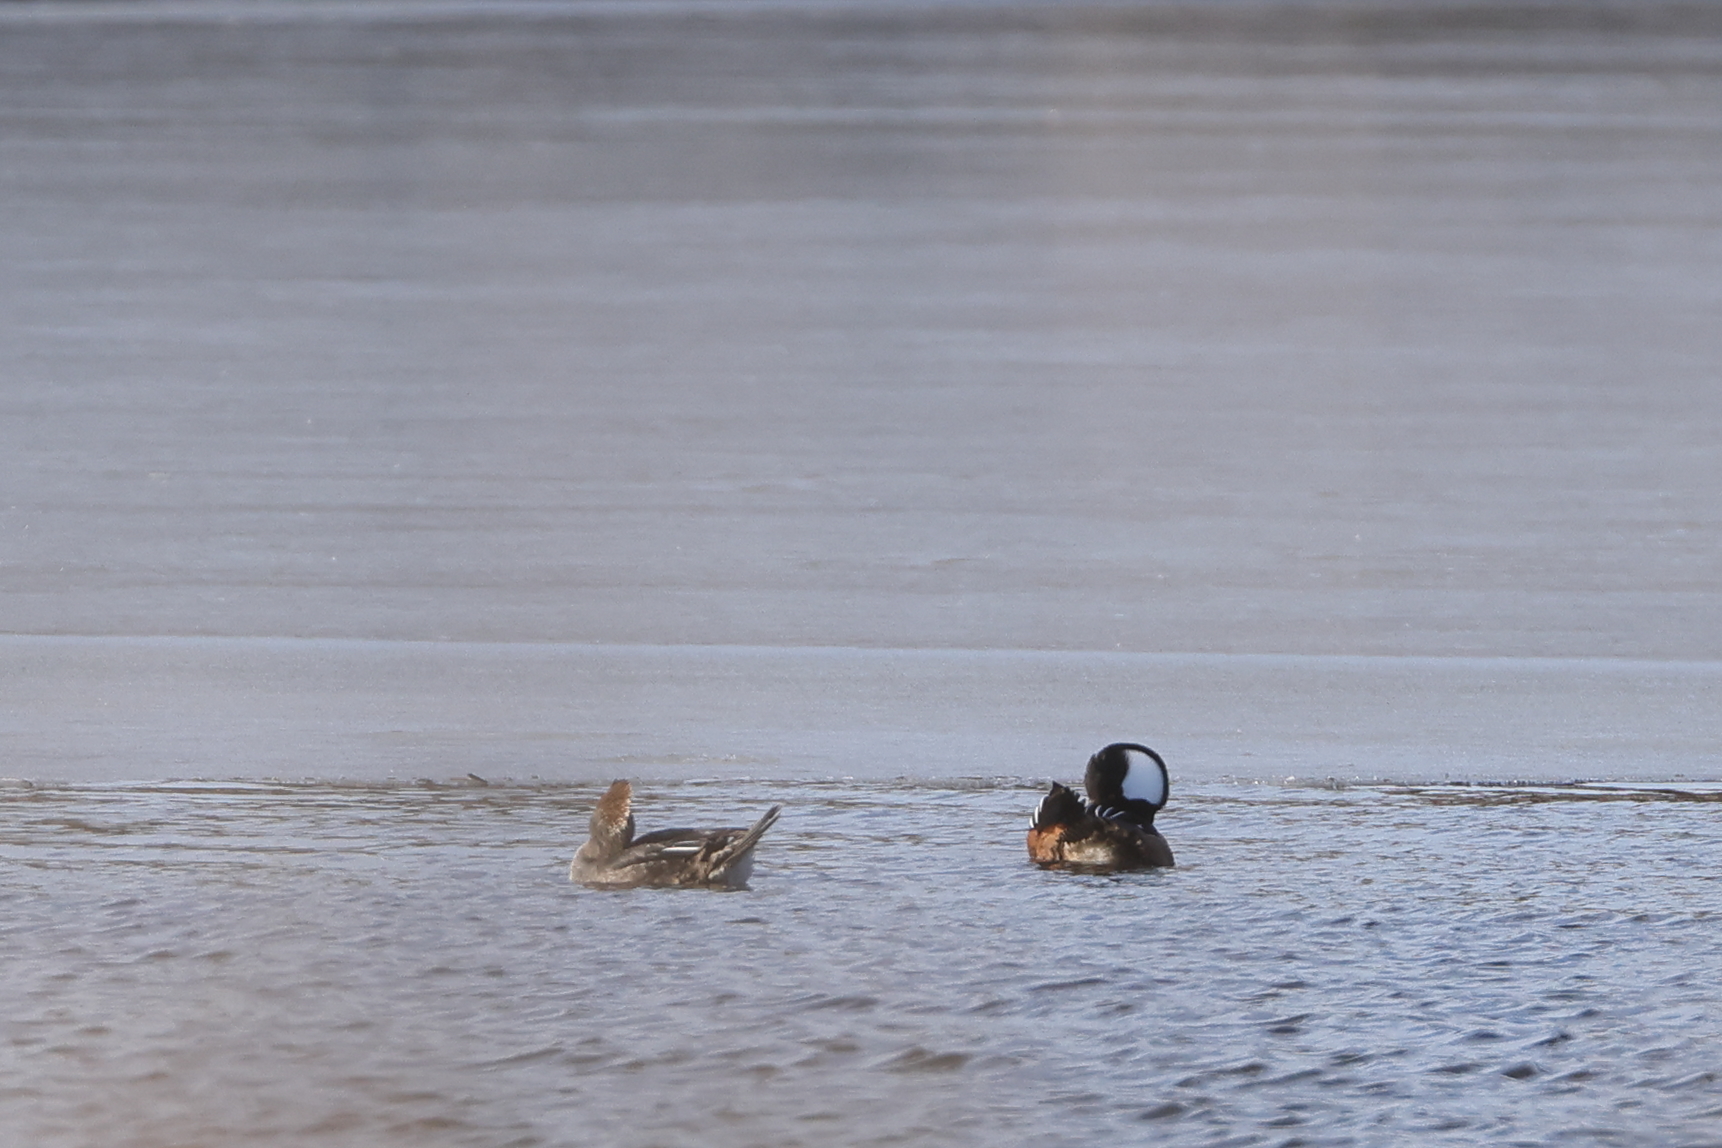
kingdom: Animalia
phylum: Chordata
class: Aves
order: Anseriformes
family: Anatidae
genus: Lophodytes
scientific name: Lophodytes cucullatus
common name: Hooded merganser
